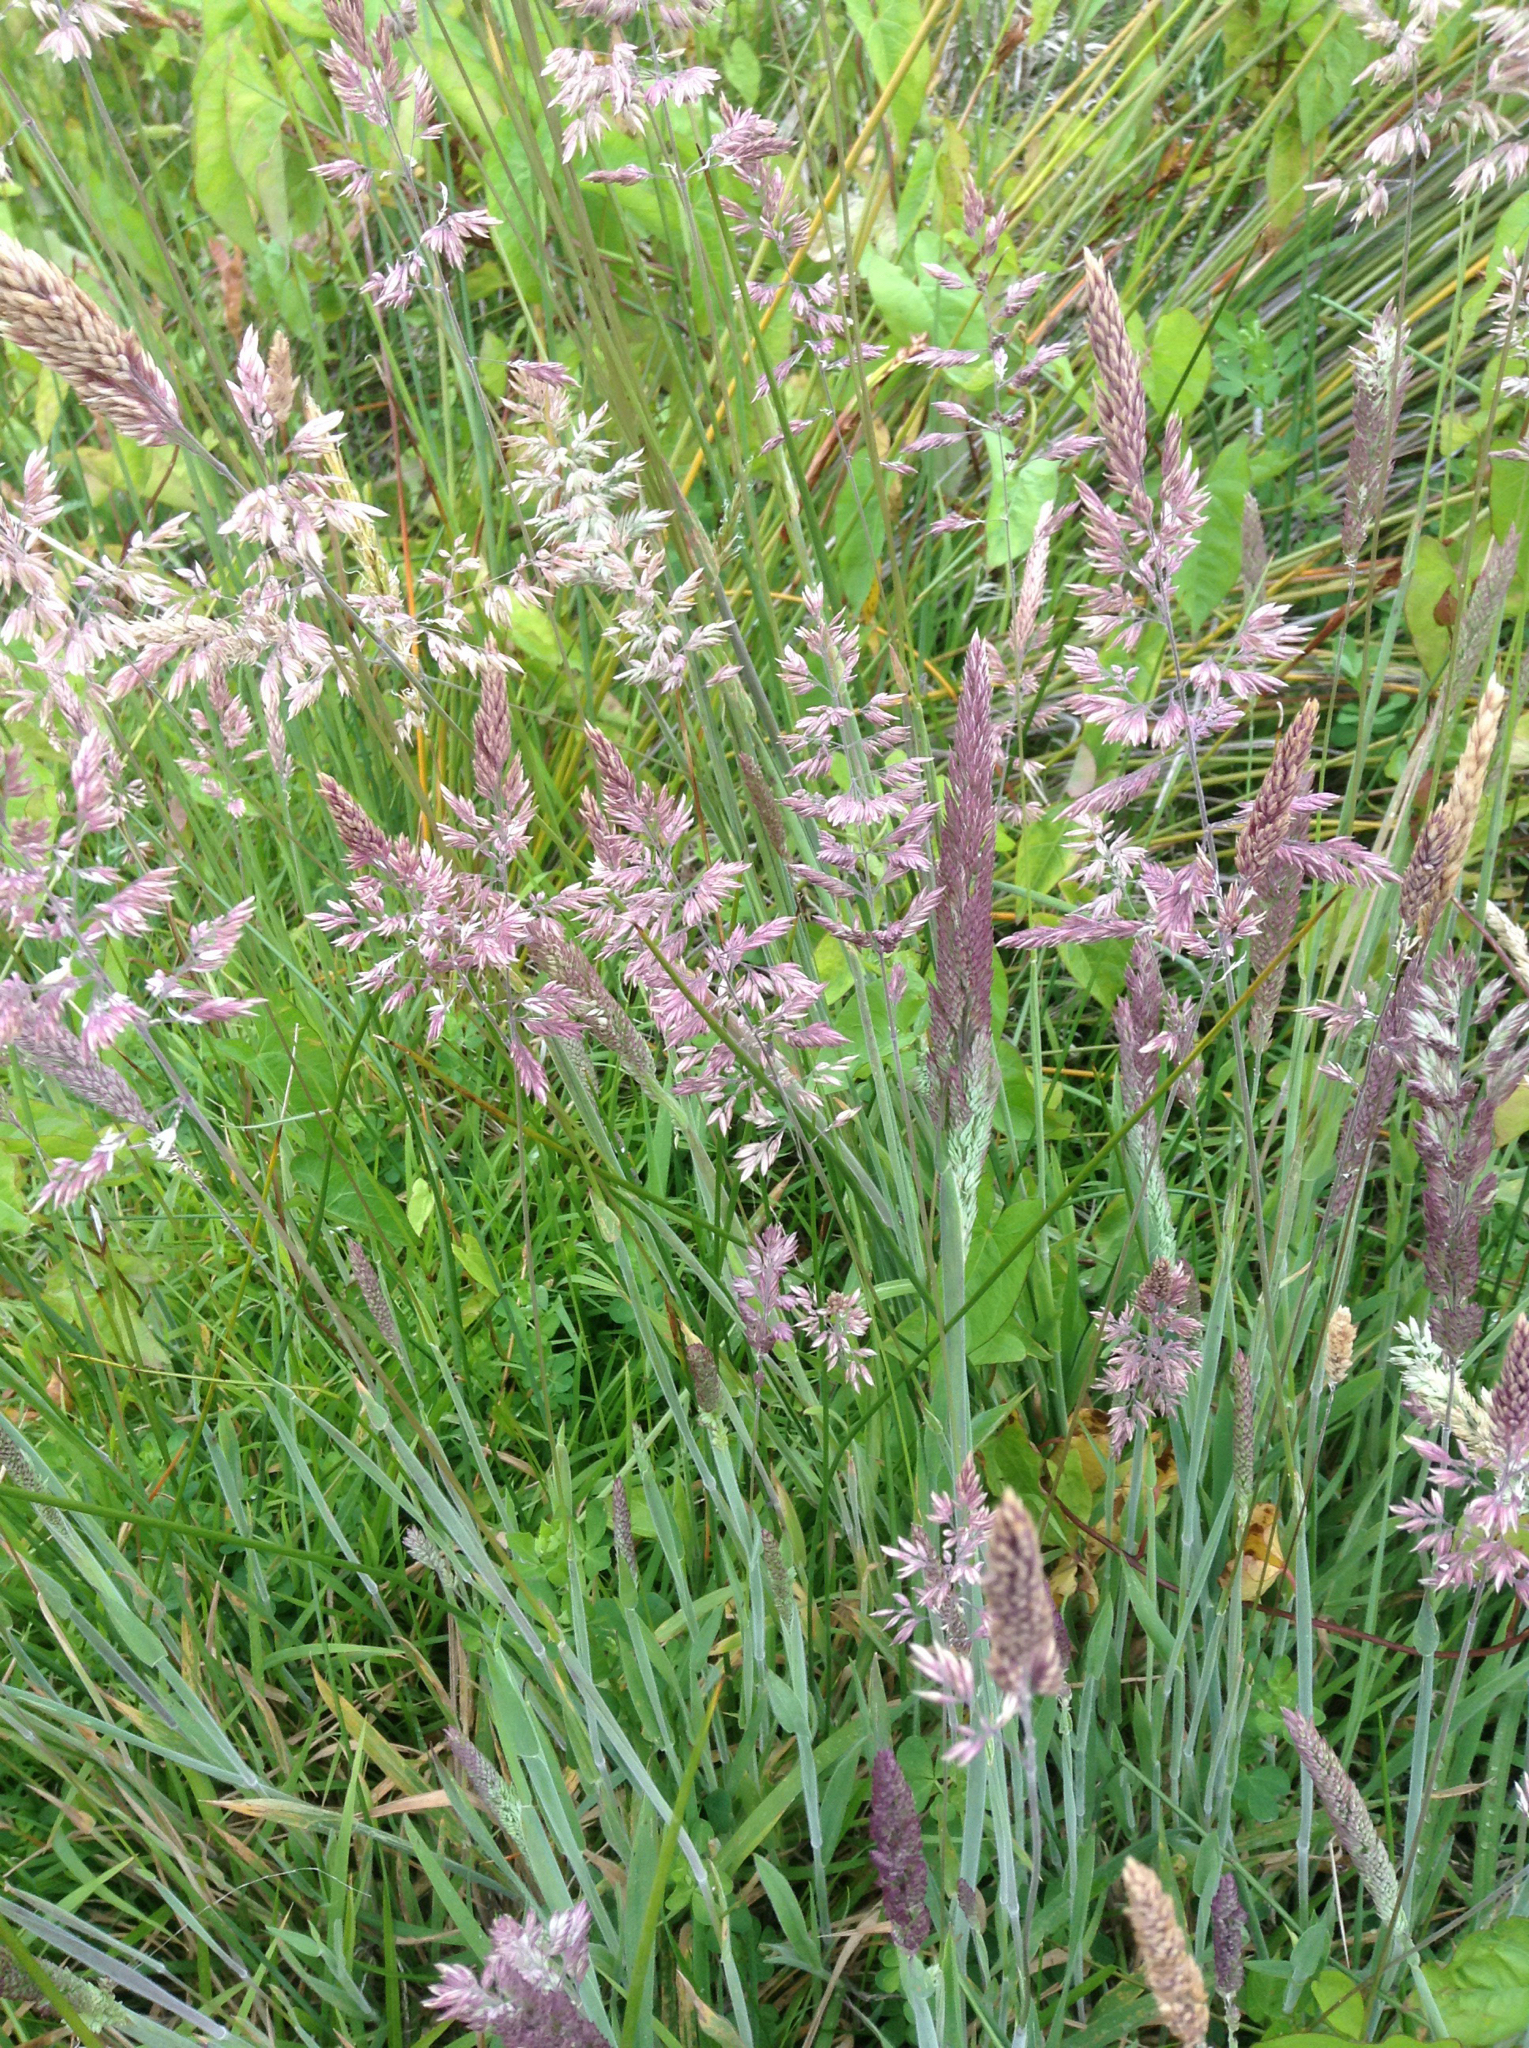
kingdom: Plantae
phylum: Tracheophyta
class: Liliopsida
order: Poales
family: Poaceae
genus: Holcus
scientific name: Holcus lanatus
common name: Yorkshire-fog
